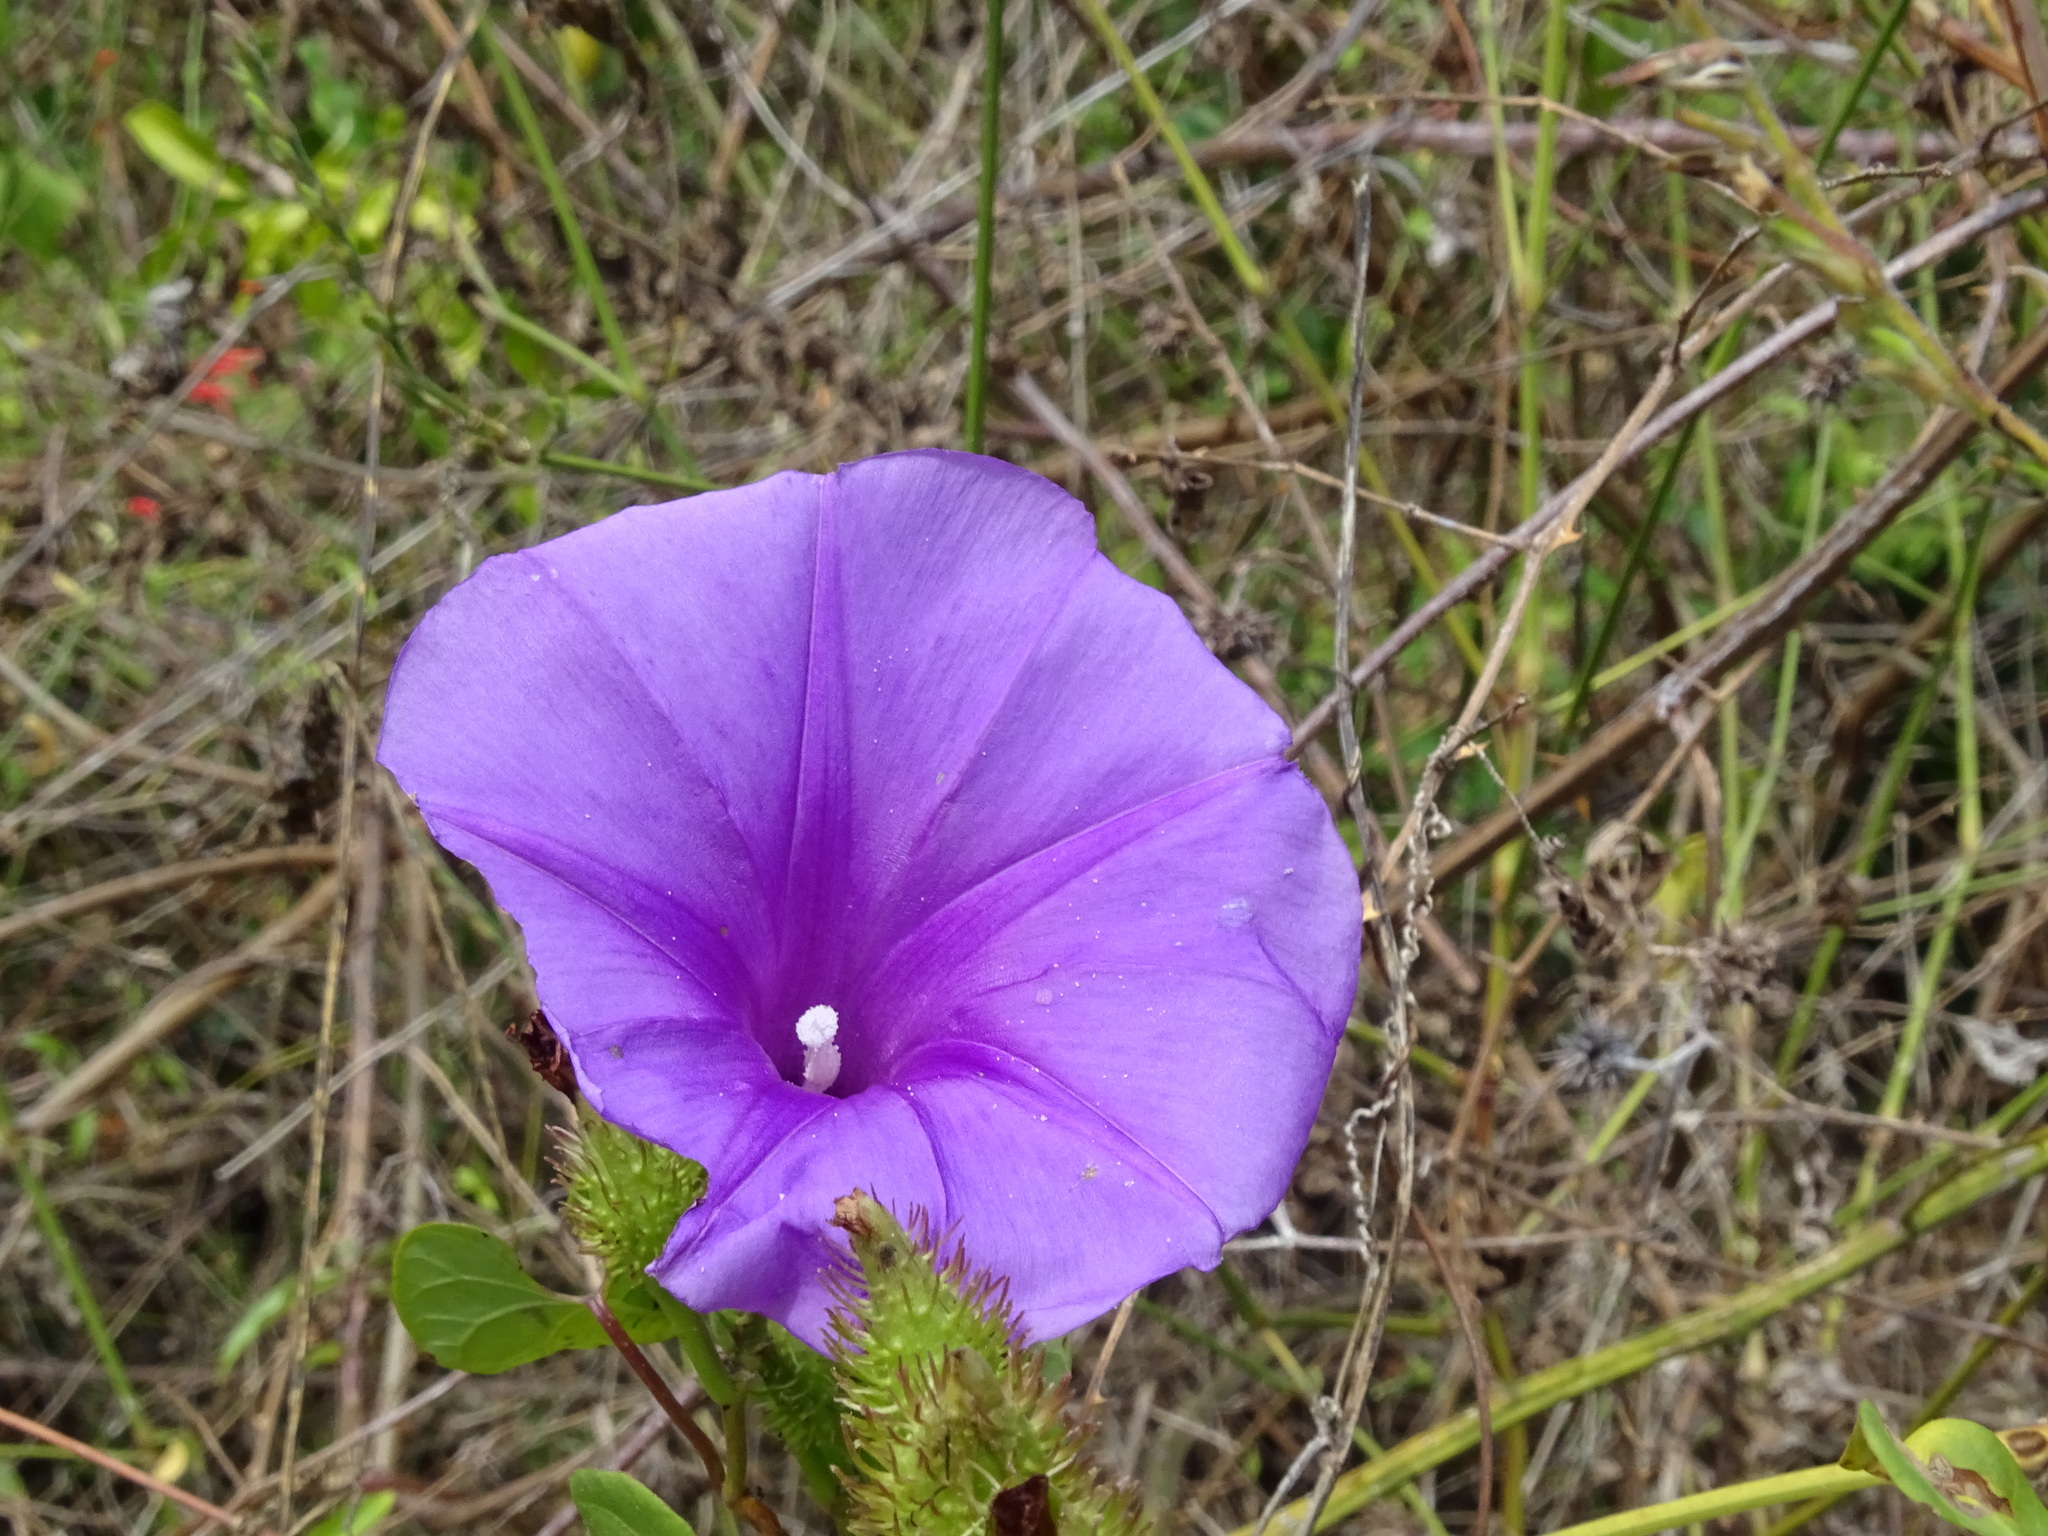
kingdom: Plantae
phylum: Tracheophyta
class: Magnoliopsida
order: Solanales
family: Convolvulaceae
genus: Ipomoea
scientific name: Ipomoea crinicalyx
